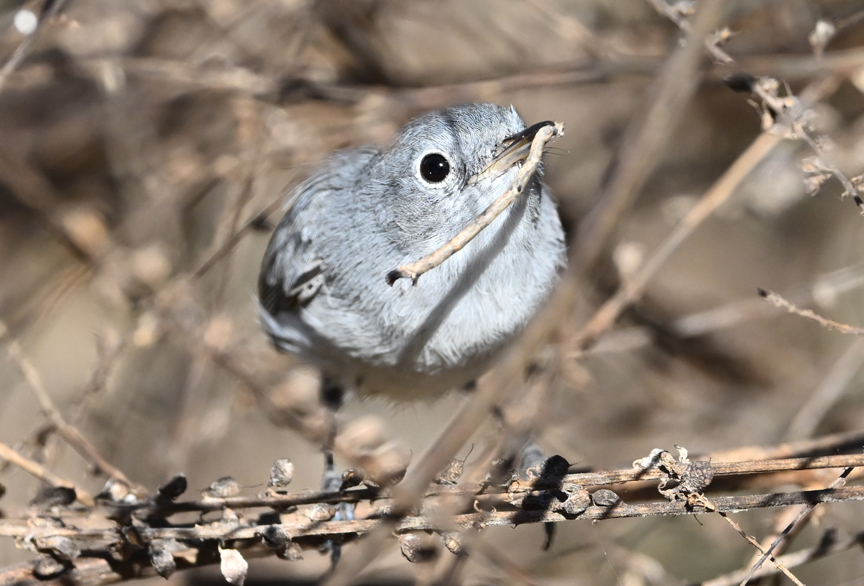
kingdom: Animalia
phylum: Chordata
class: Aves
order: Passeriformes
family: Polioptilidae
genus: Polioptila
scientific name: Polioptila caerulea
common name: Blue-gray gnatcatcher
